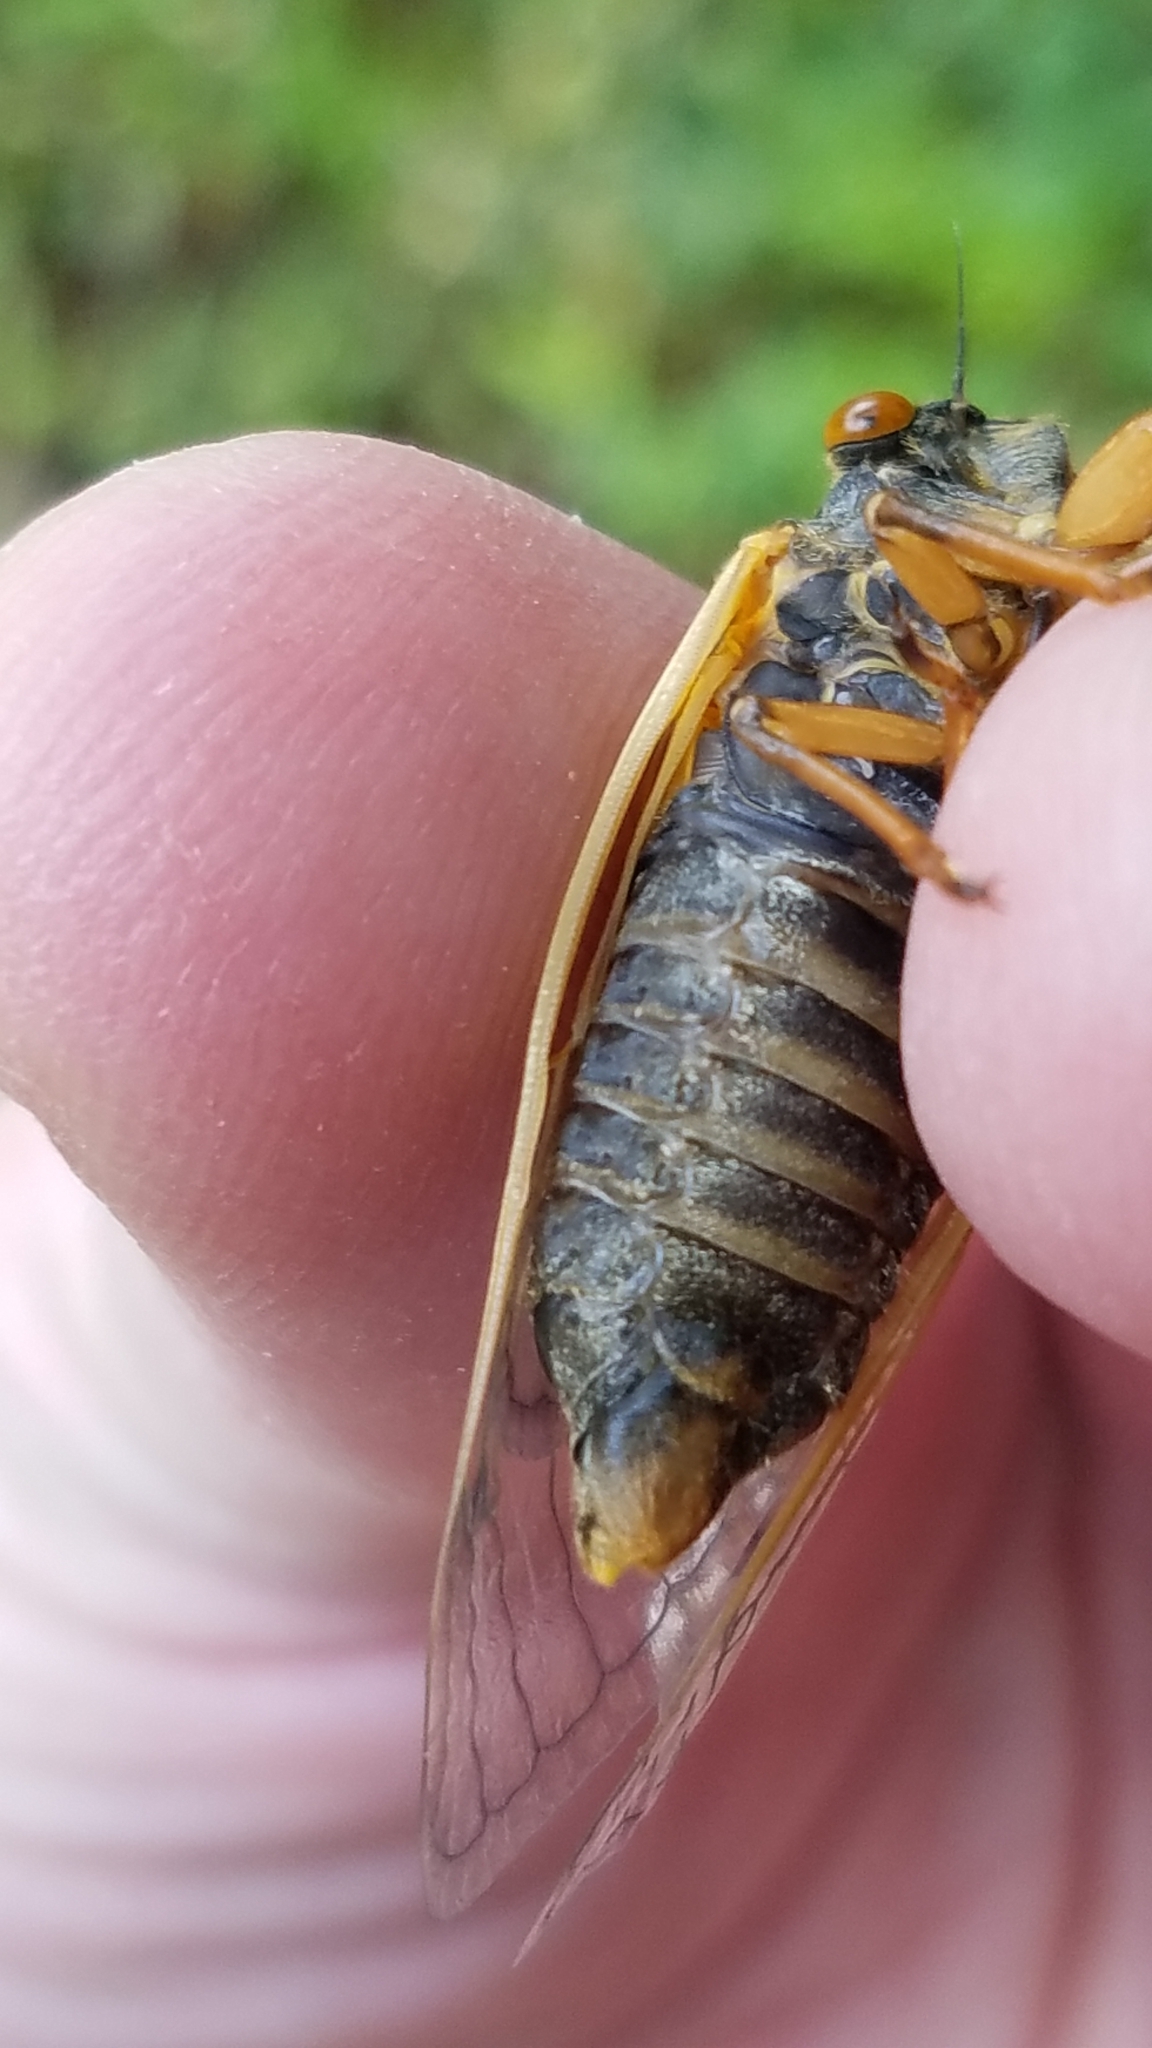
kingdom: Animalia
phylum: Arthropoda
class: Insecta
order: Hemiptera
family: Cicadidae
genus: Magicicada
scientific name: Magicicada cassini
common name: Cassin's 17-year cicada
